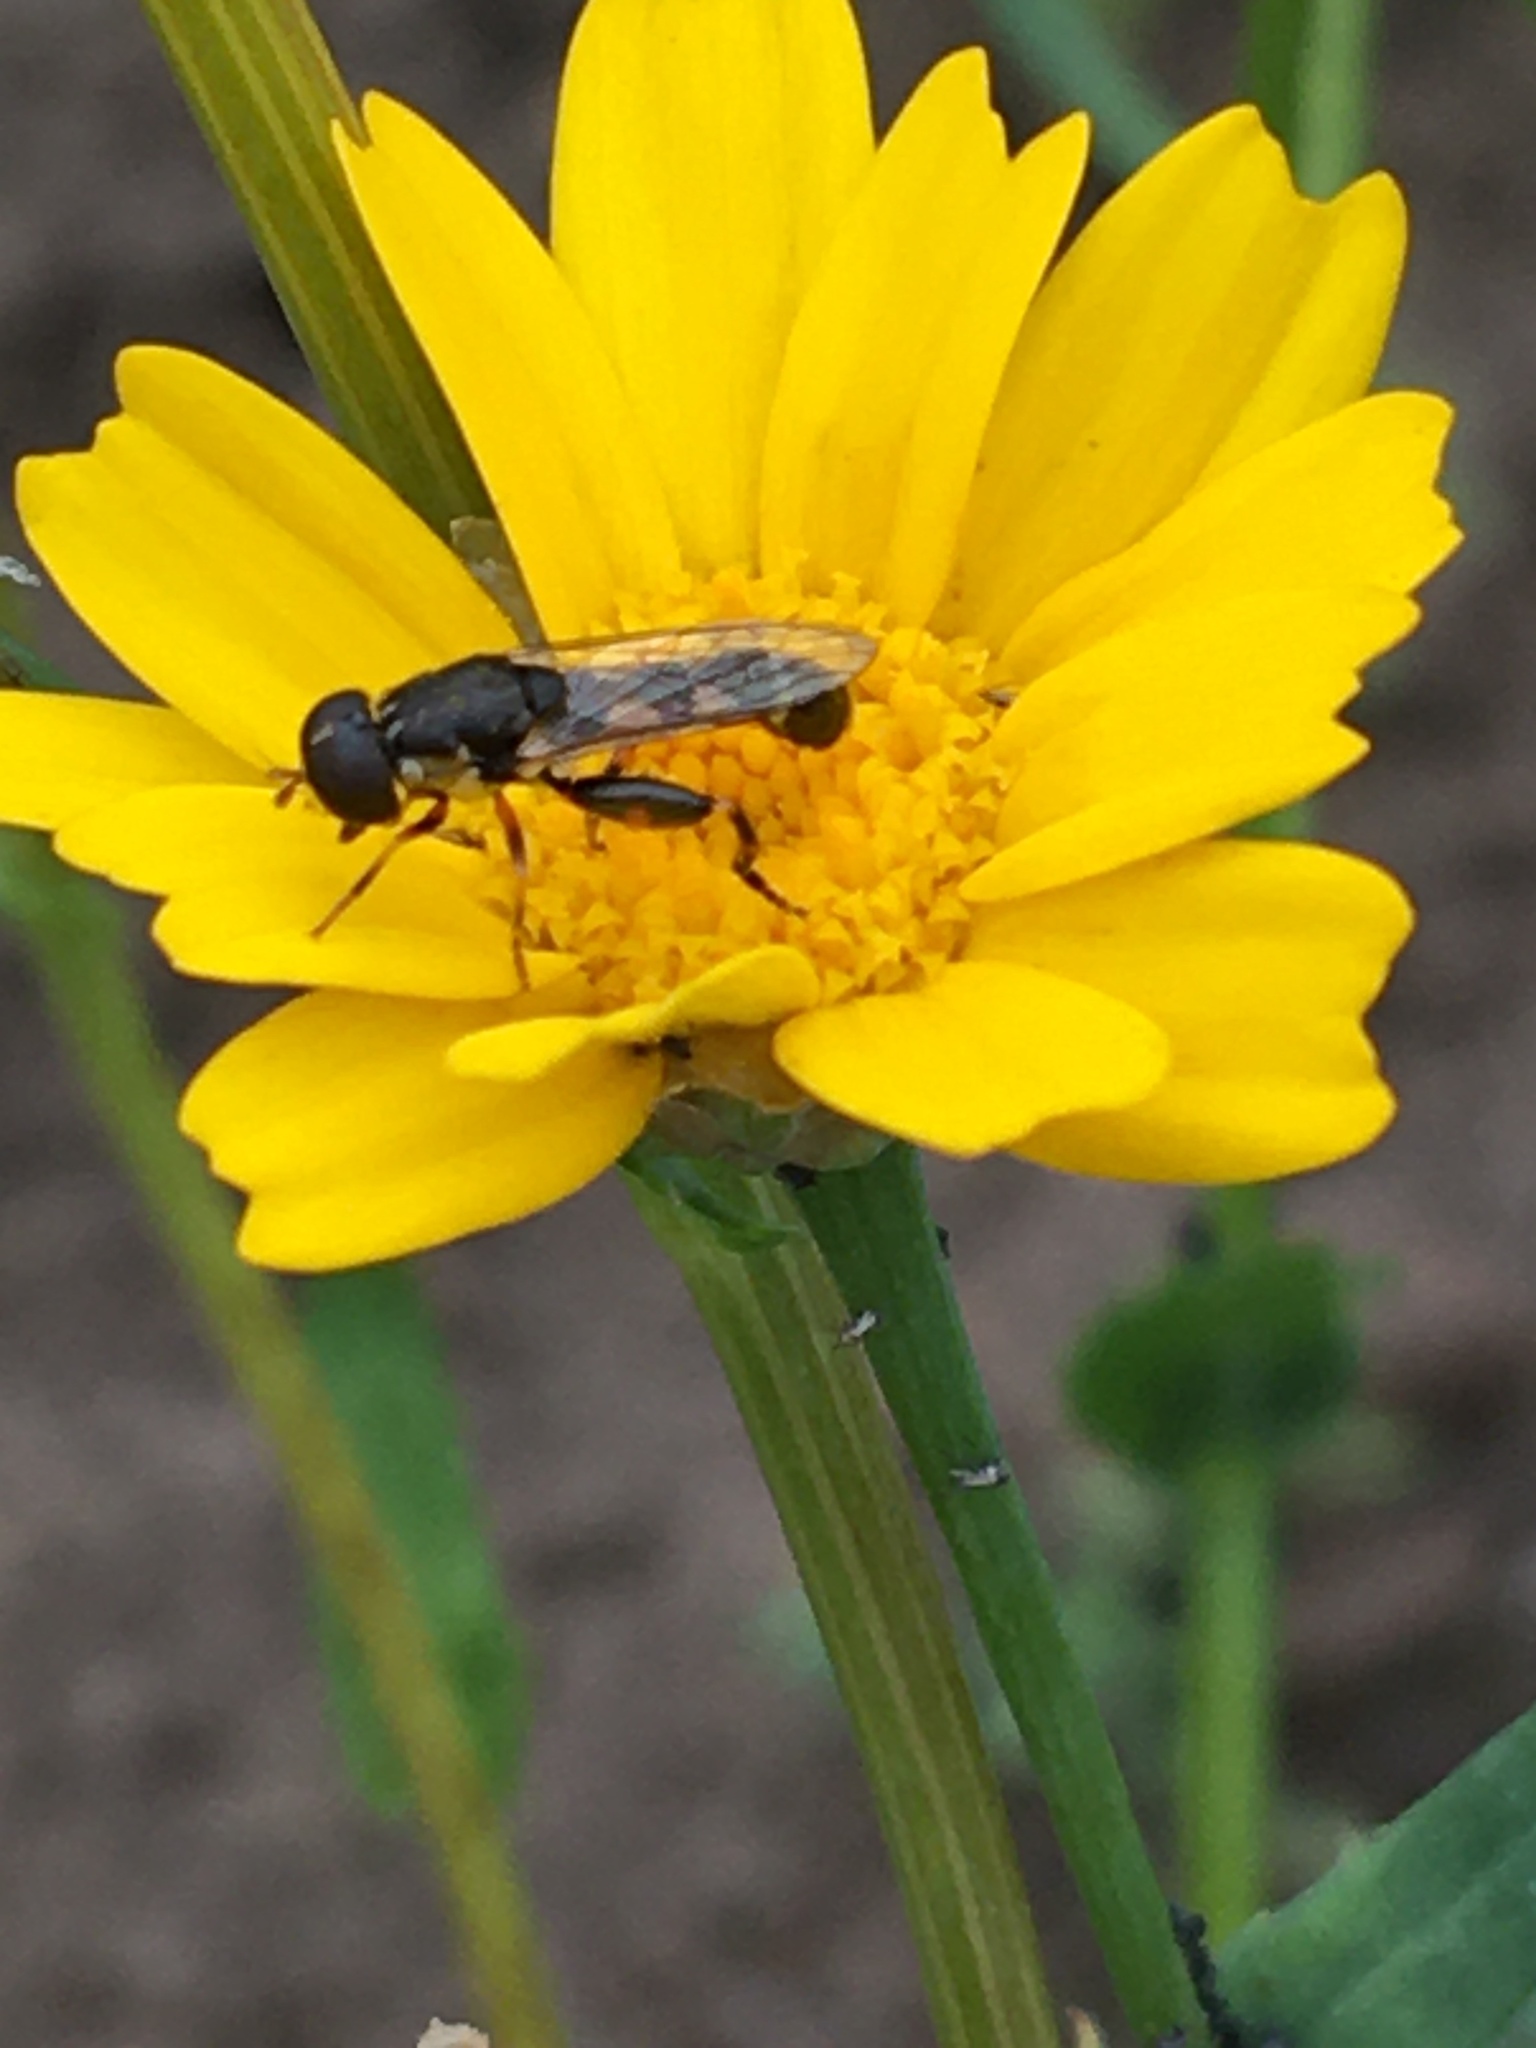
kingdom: Animalia
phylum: Arthropoda
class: Insecta
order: Diptera
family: Syrphidae
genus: Syritta
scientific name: Syritta pipiens
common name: Hover fly
